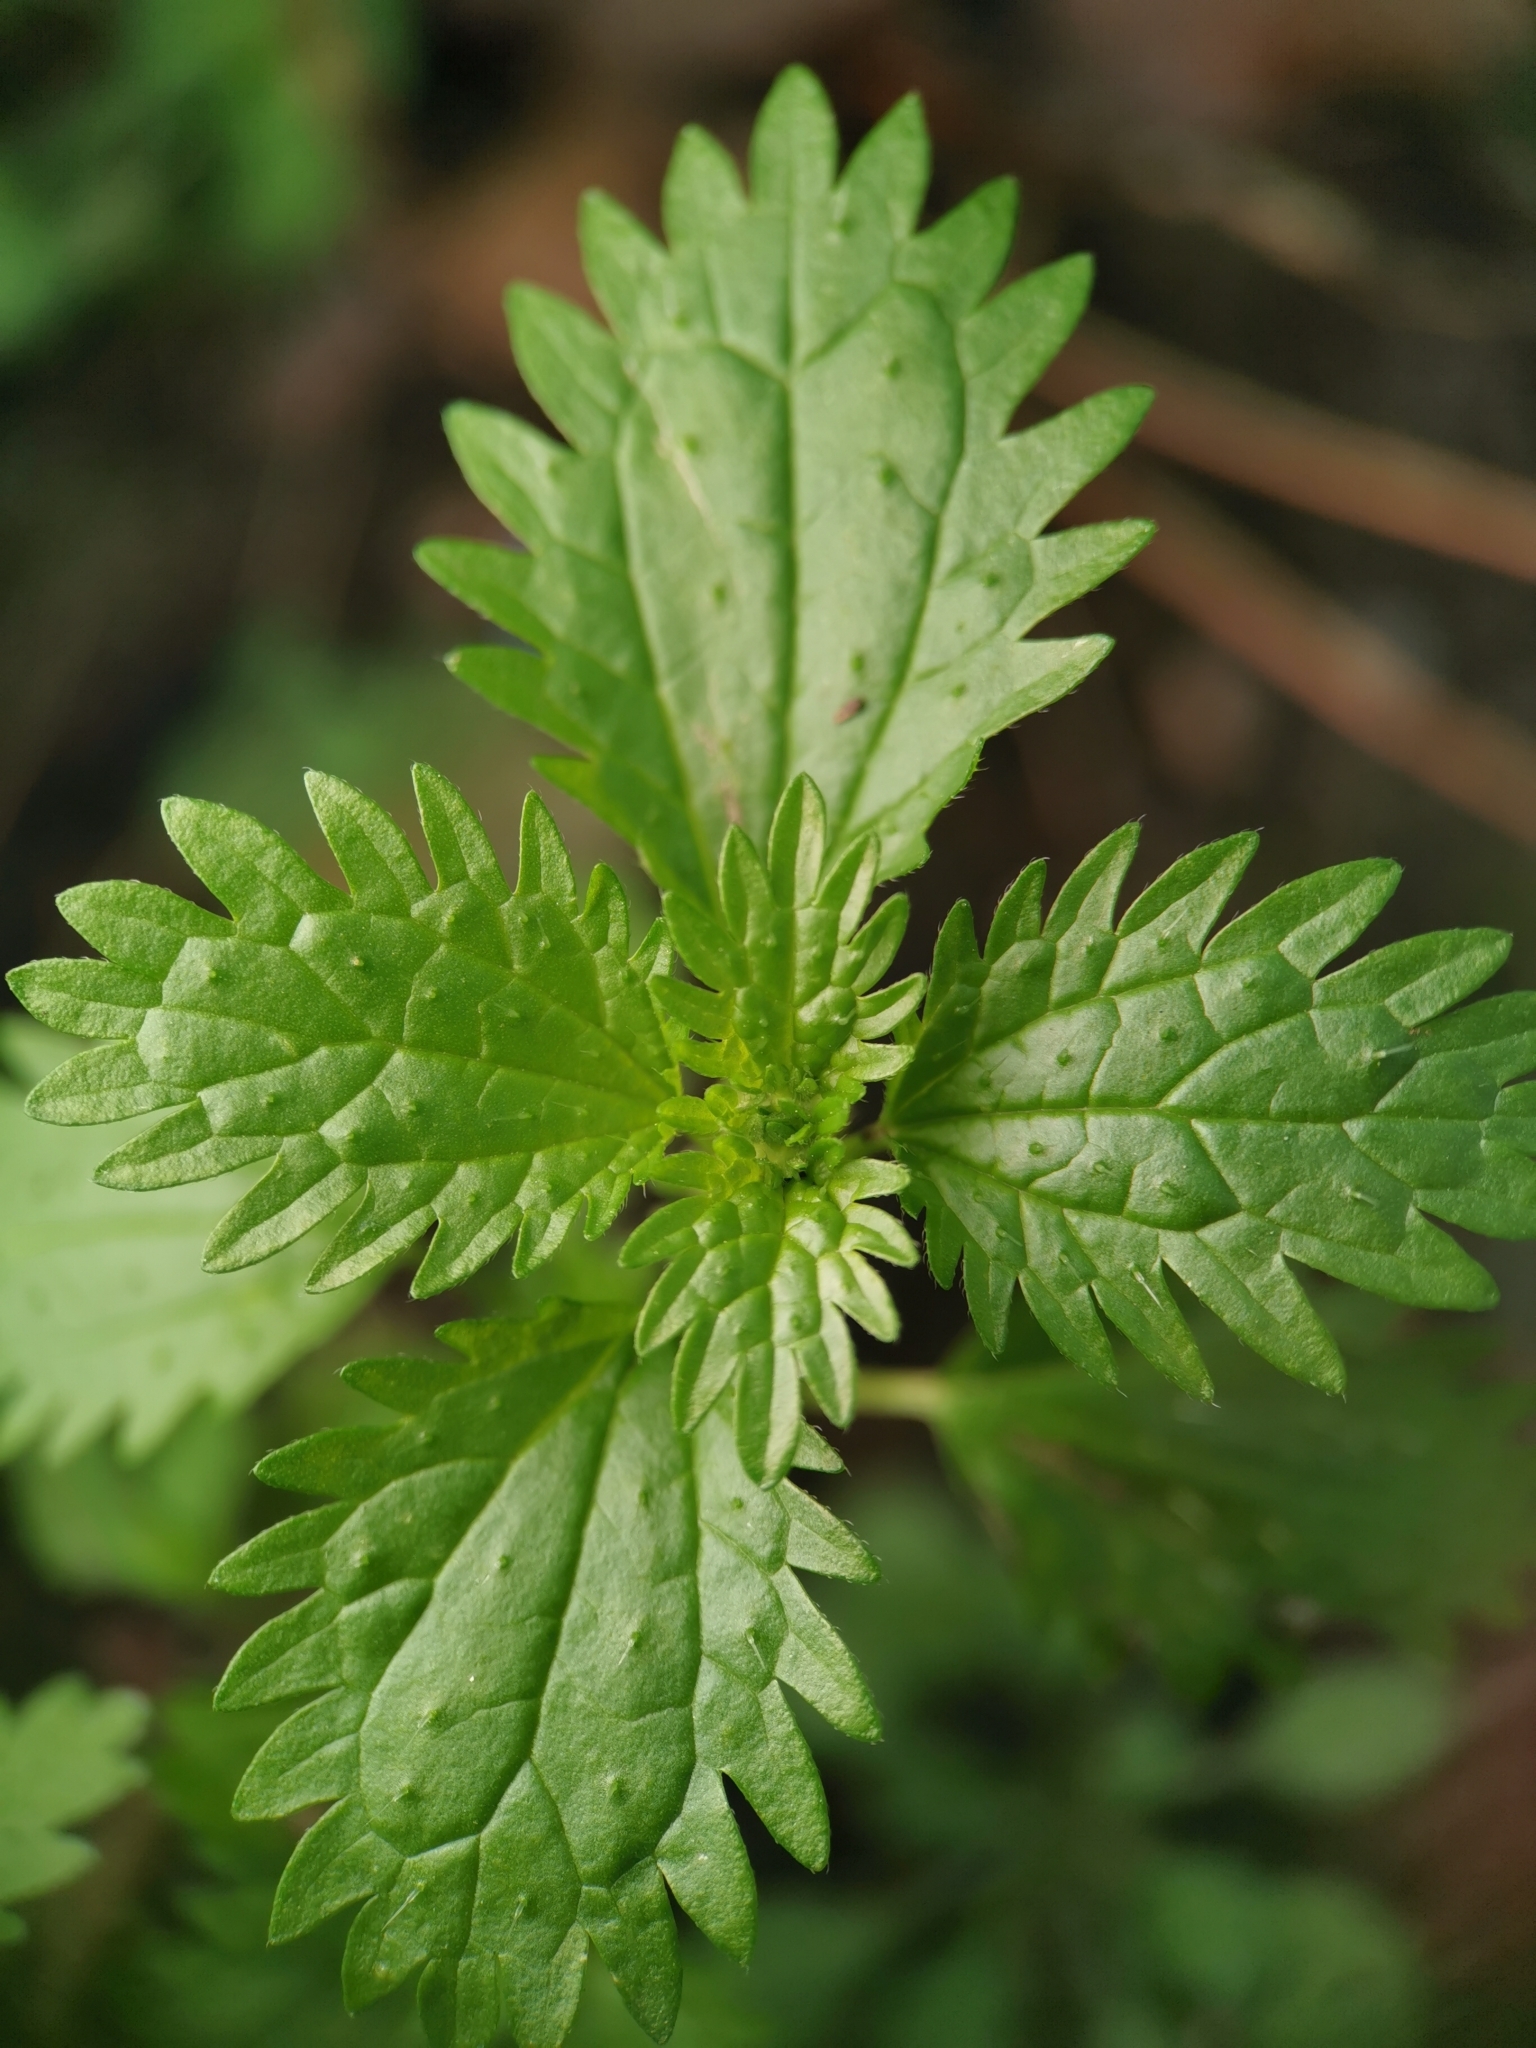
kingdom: Plantae
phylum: Tracheophyta
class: Magnoliopsida
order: Rosales
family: Urticaceae
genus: Urtica
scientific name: Urtica urens
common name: Dwarf nettle
